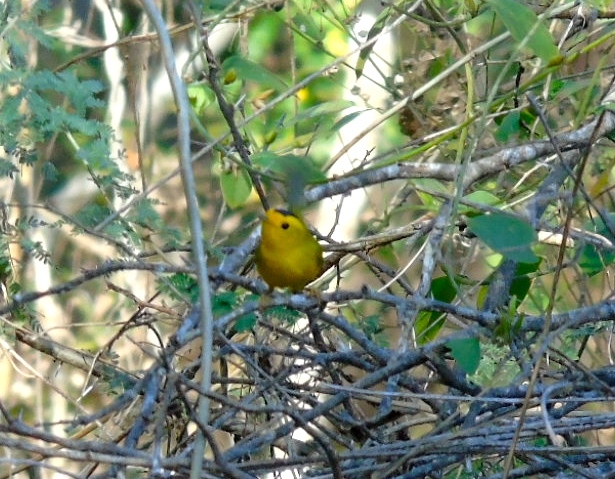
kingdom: Animalia
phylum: Chordata
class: Aves
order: Passeriformes
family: Parulidae
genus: Cardellina
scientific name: Cardellina pusilla
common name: Wilson's warbler
